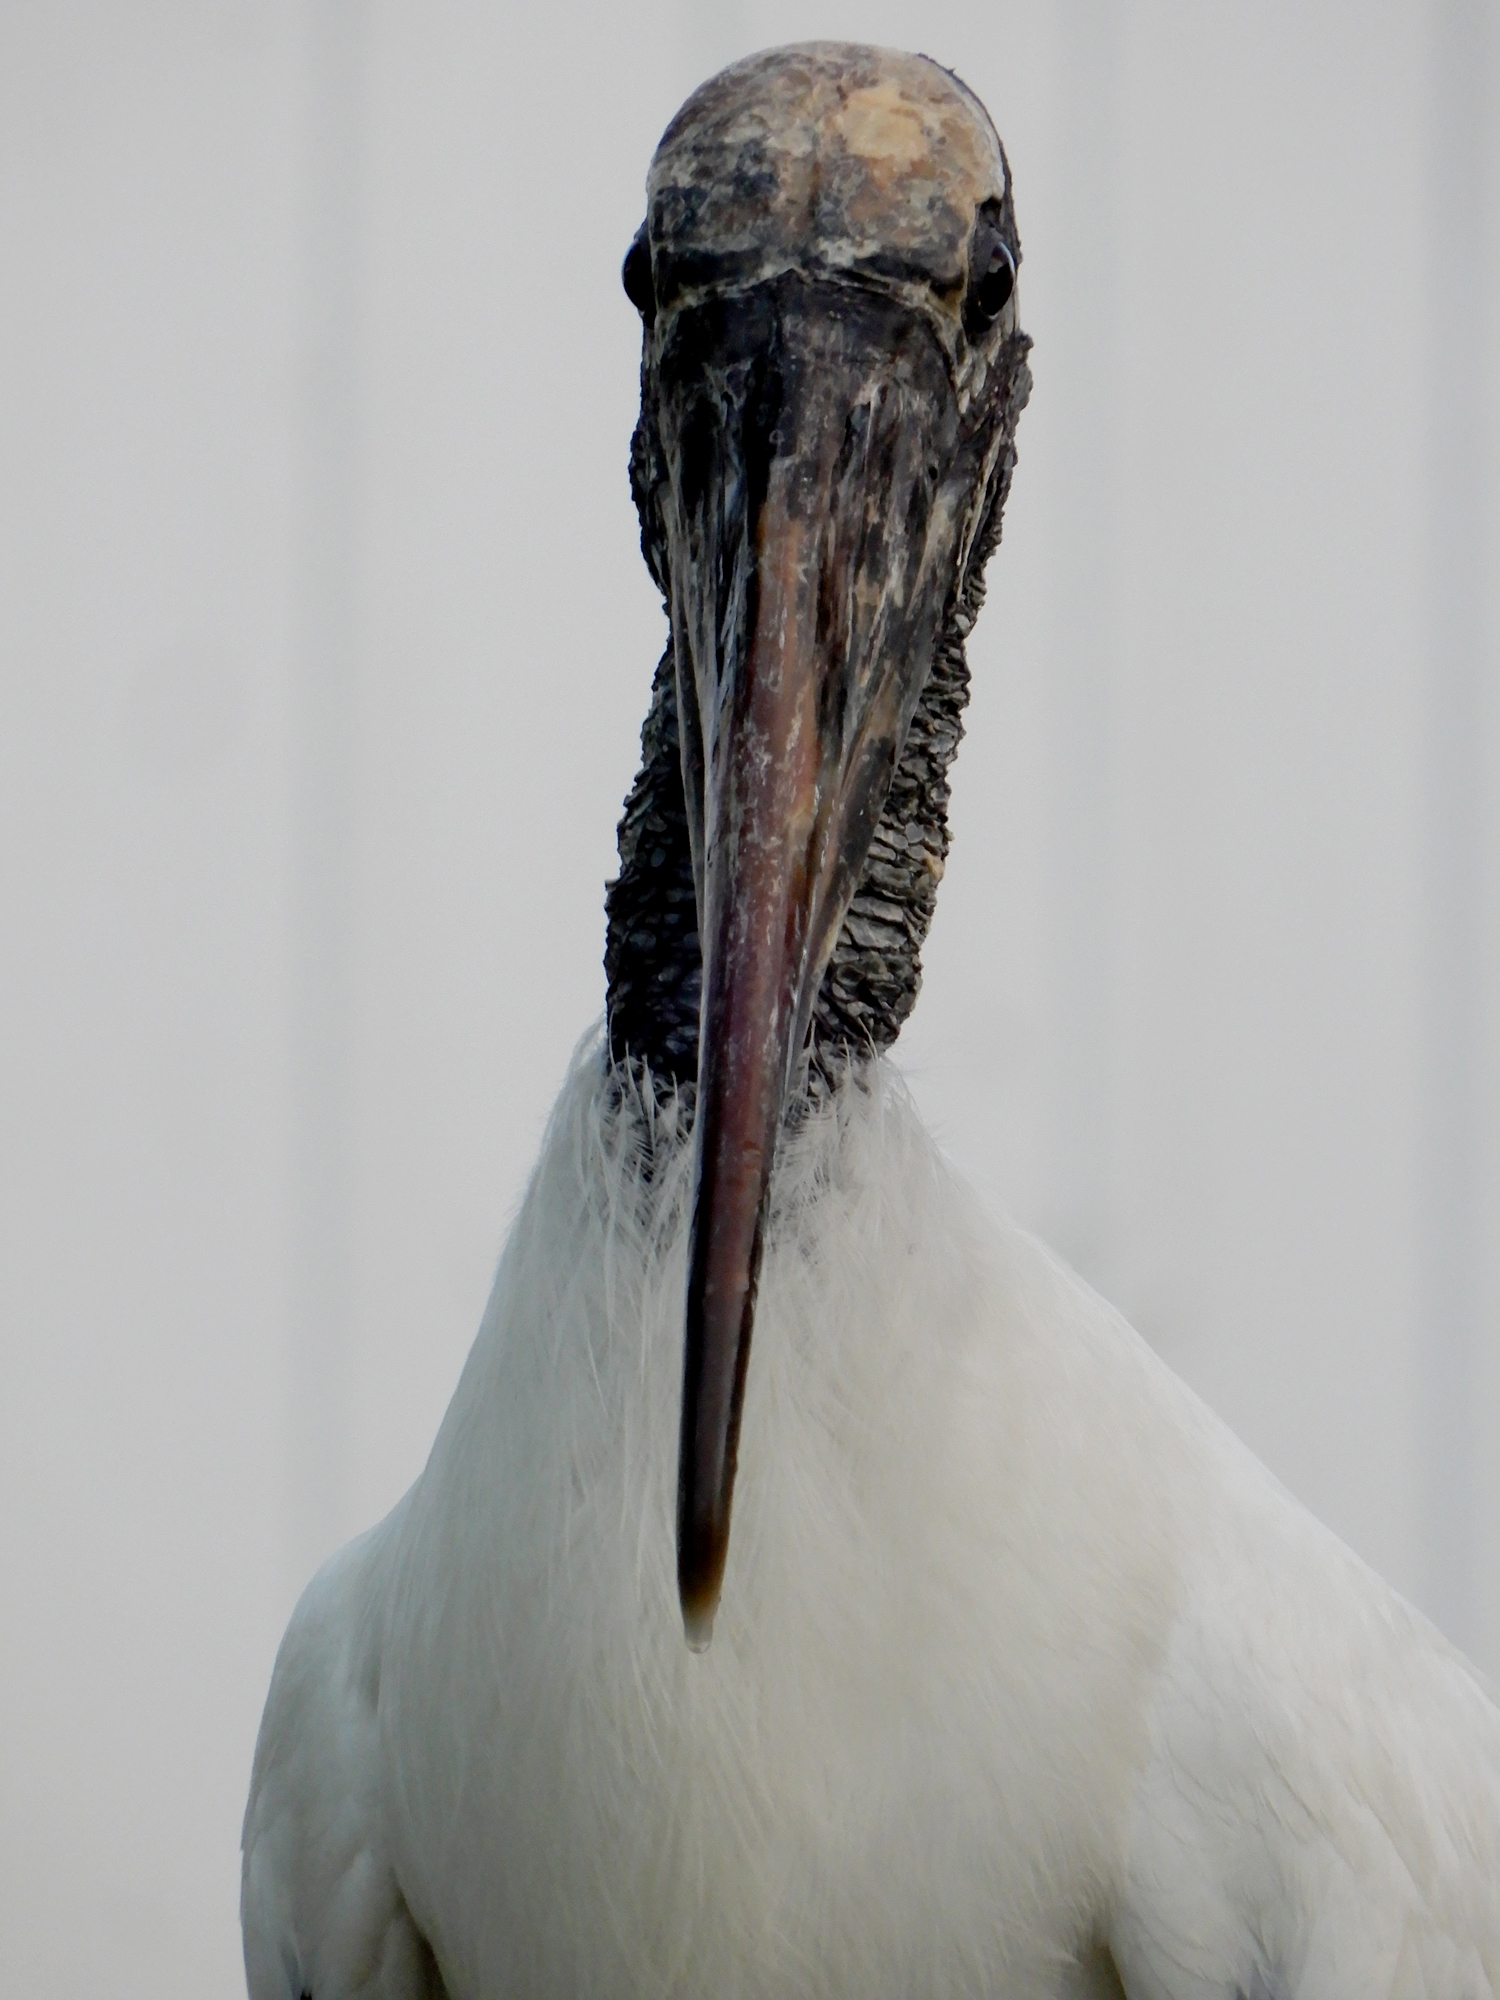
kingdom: Animalia
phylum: Chordata
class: Aves
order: Ciconiiformes
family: Ciconiidae
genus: Mycteria
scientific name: Mycteria americana
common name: Wood stork
